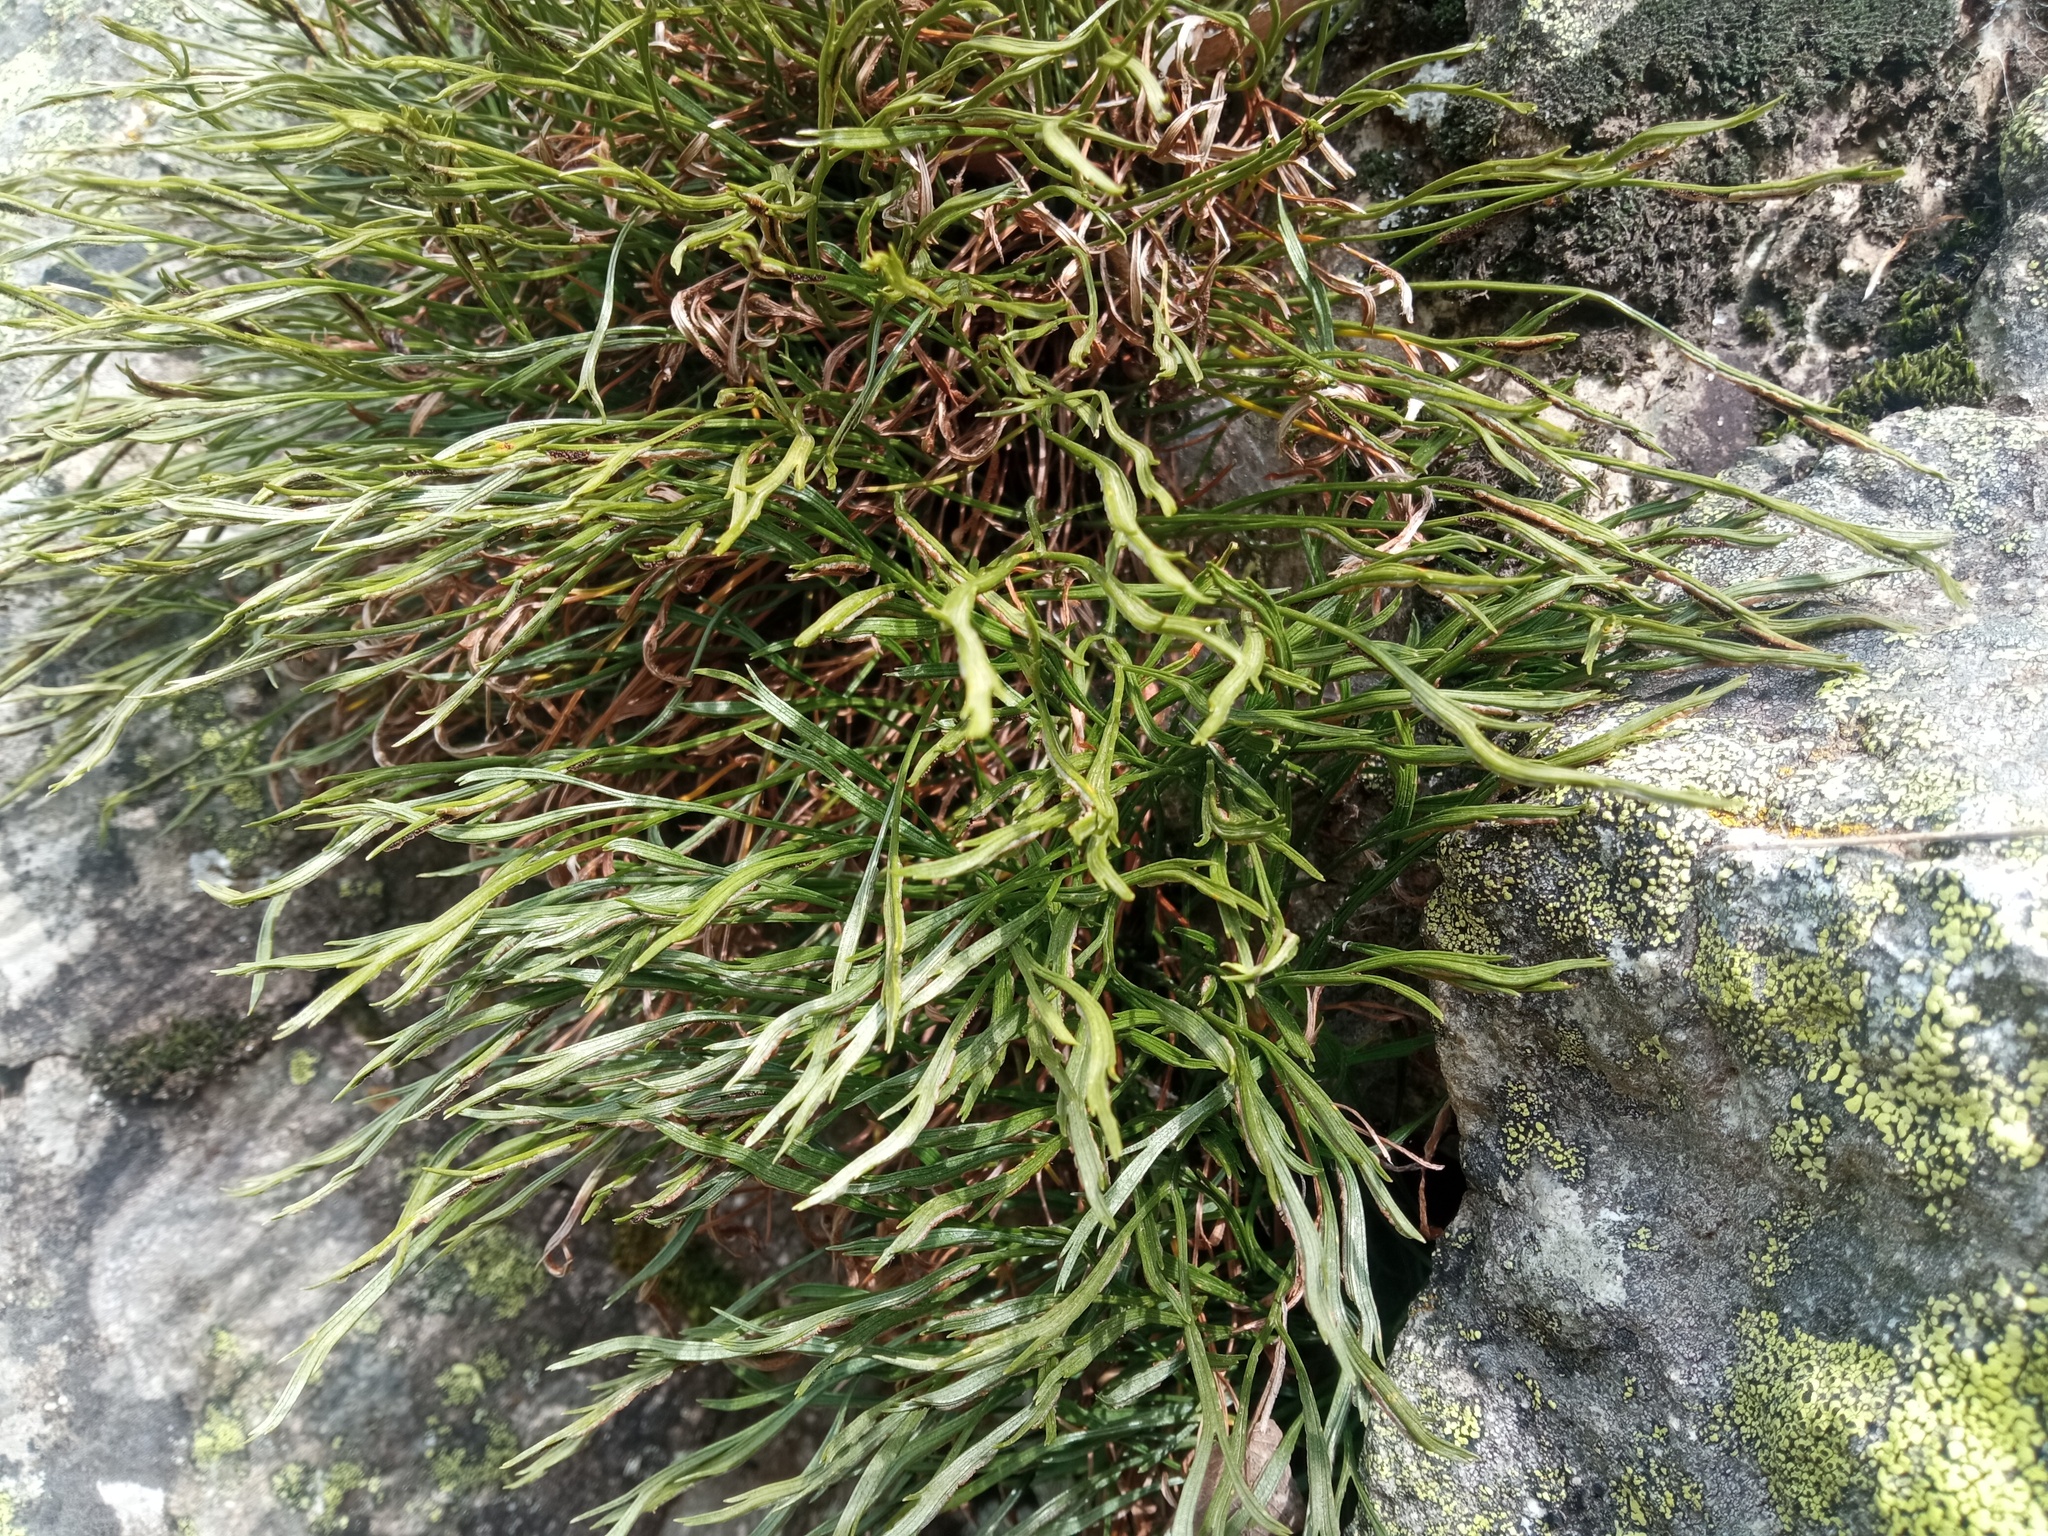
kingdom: Plantae
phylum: Tracheophyta
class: Polypodiopsida
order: Polypodiales
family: Aspleniaceae
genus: Asplenium
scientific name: Asplenium septentrionale
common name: Forked spleenwort
